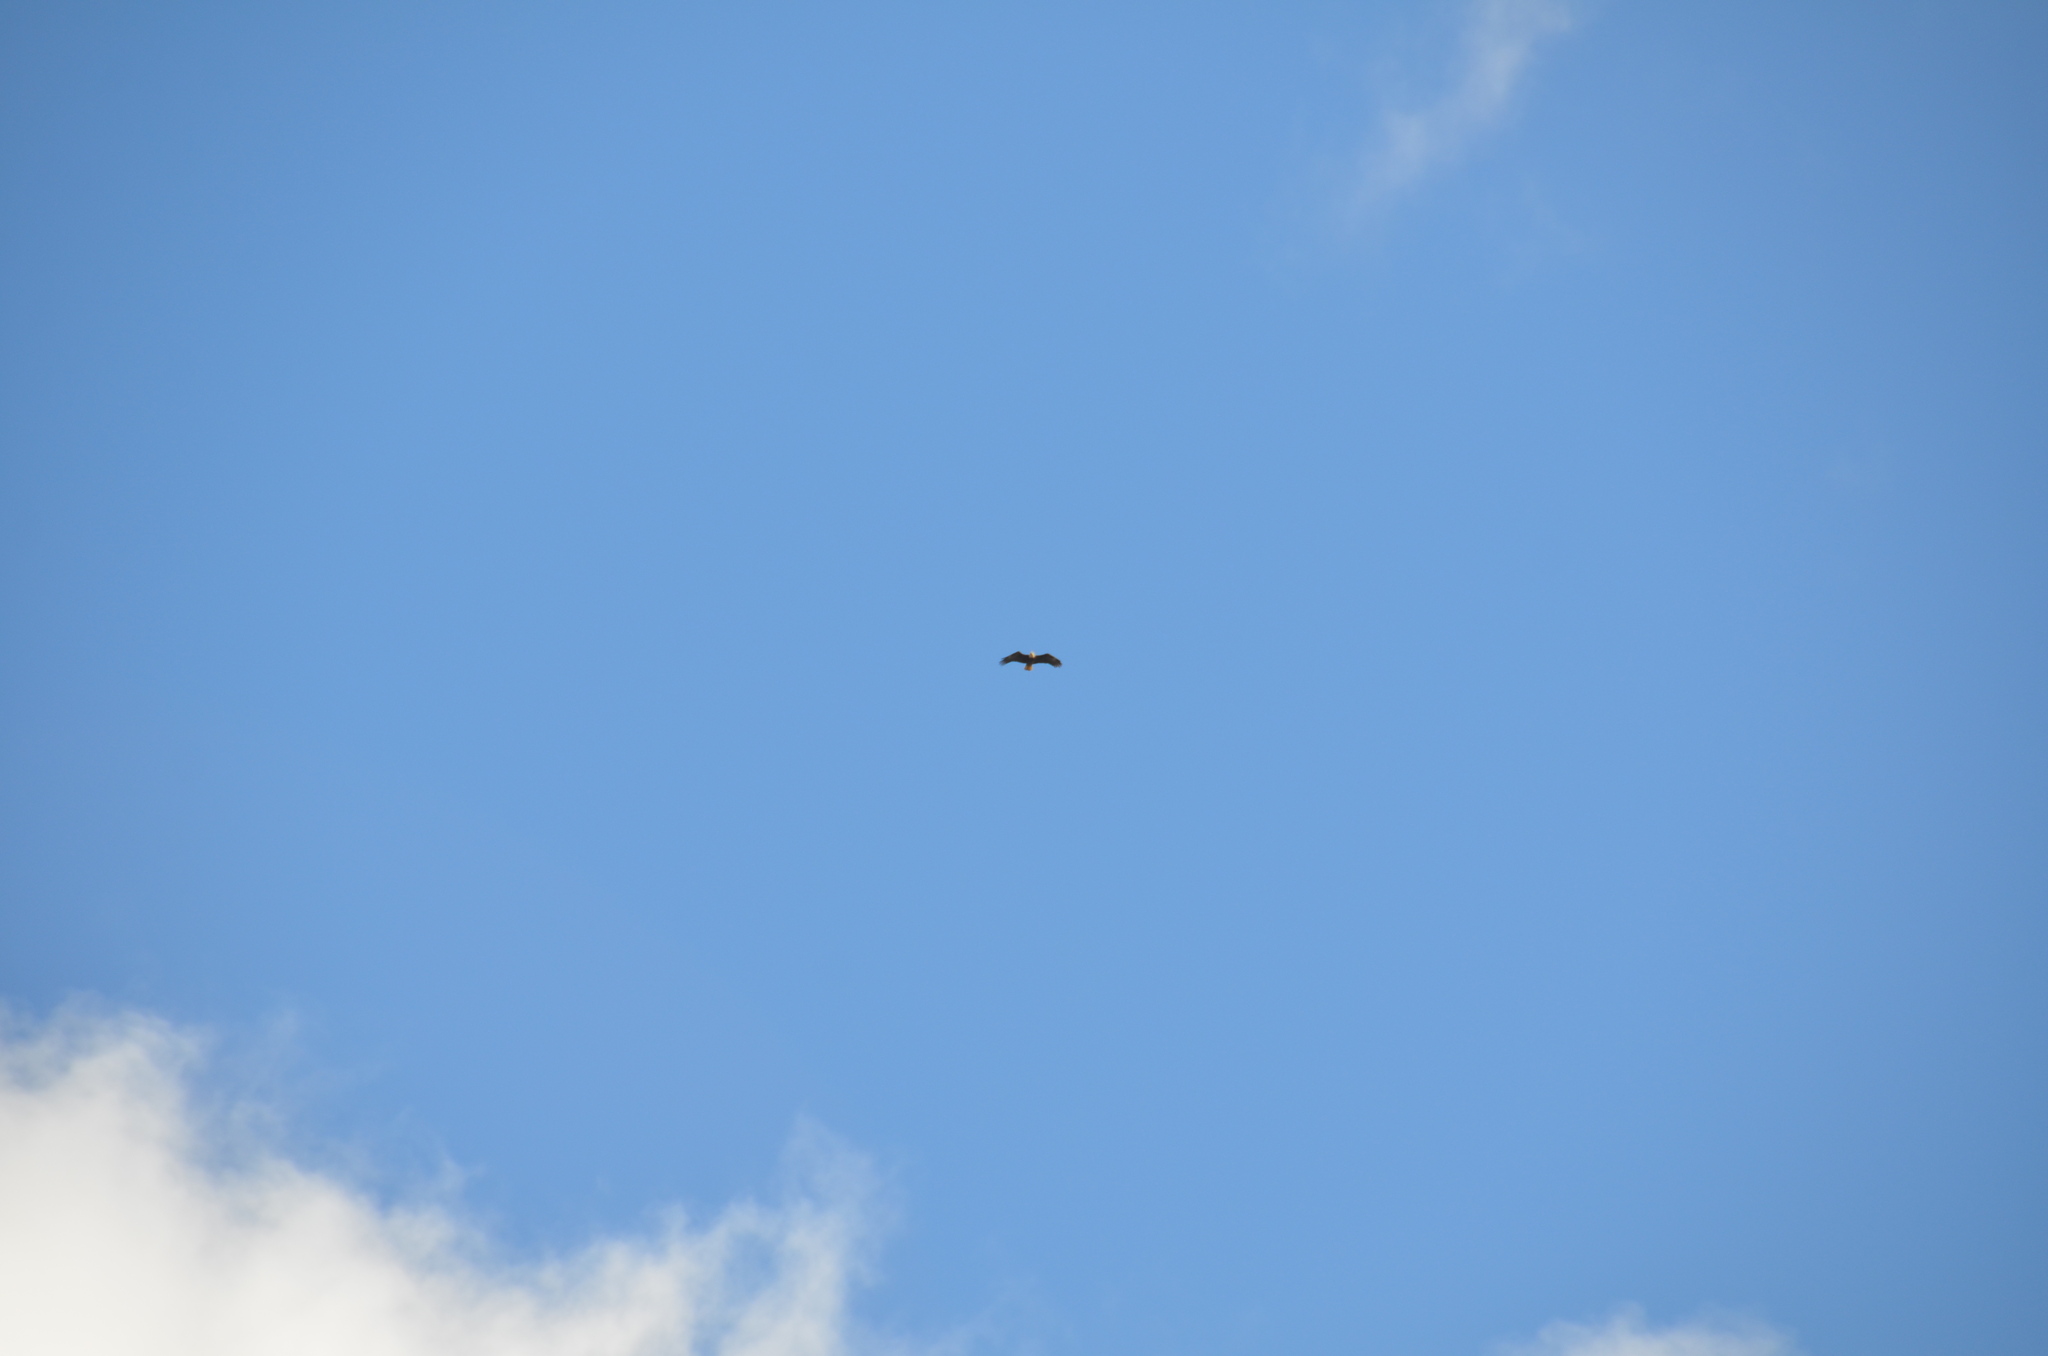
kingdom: Animalia
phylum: Chordata
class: Aves
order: Accipitriformes
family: Accipitridae
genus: Haliaeetus
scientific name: Haliaeetus leucocephalus
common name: Bald eagle
